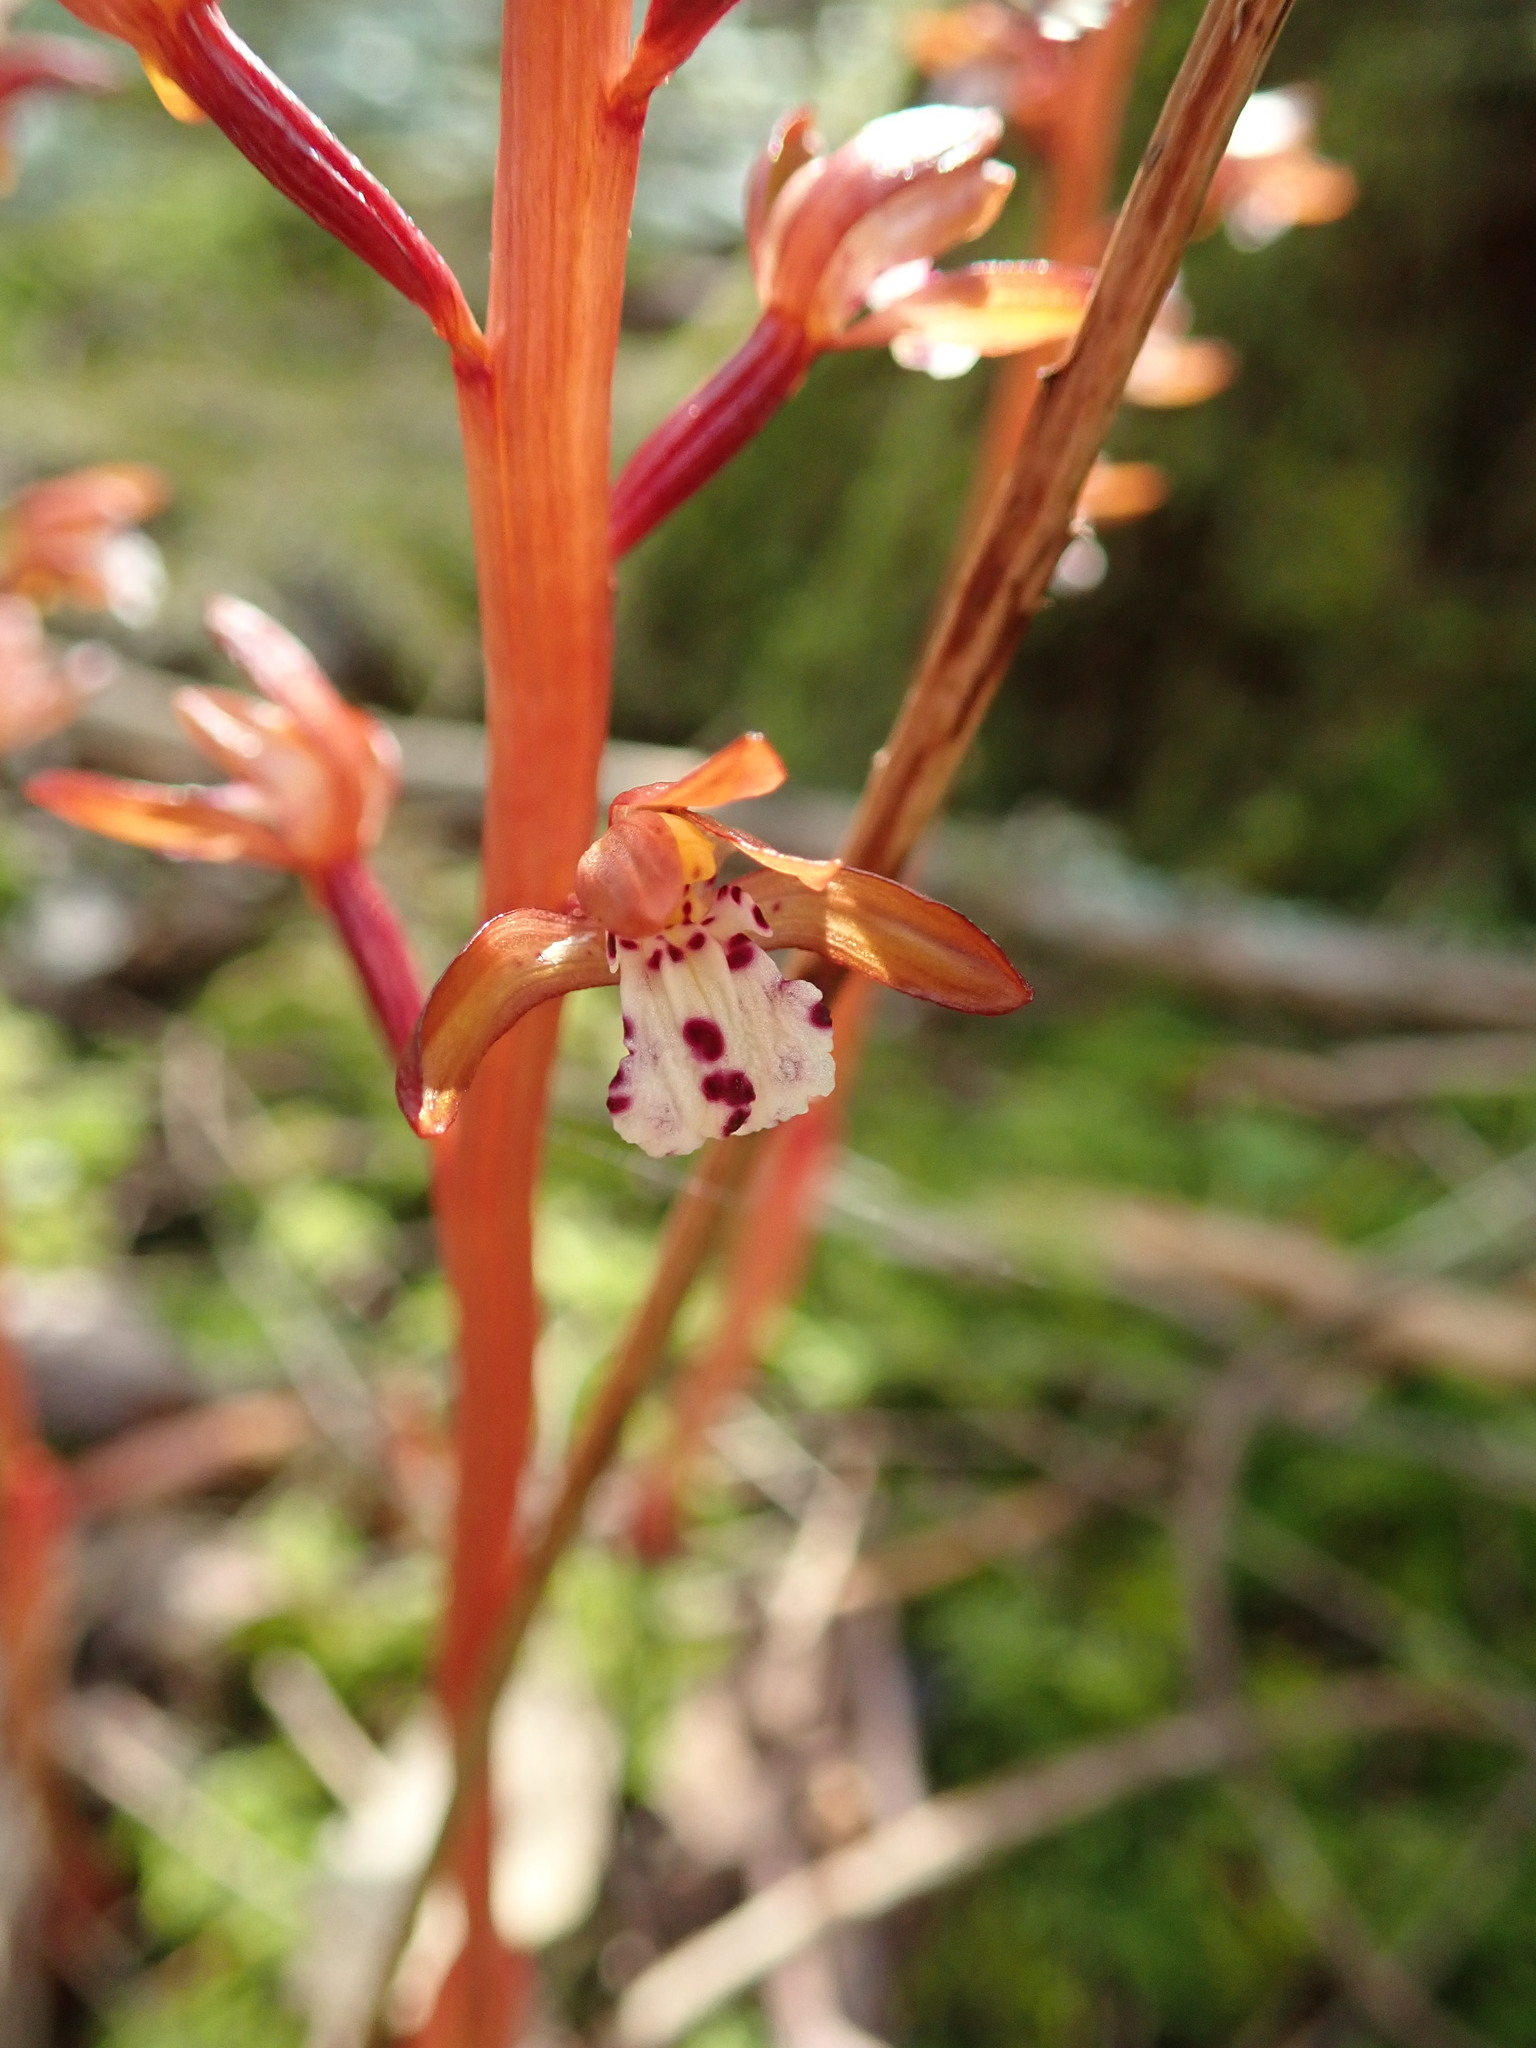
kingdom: Plantae
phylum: Tracheophyta
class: Liliopsida
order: Asparagales
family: Orchidaceae
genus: Corallorhiza
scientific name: Corallorhiza maculata
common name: Spotted coralroot
